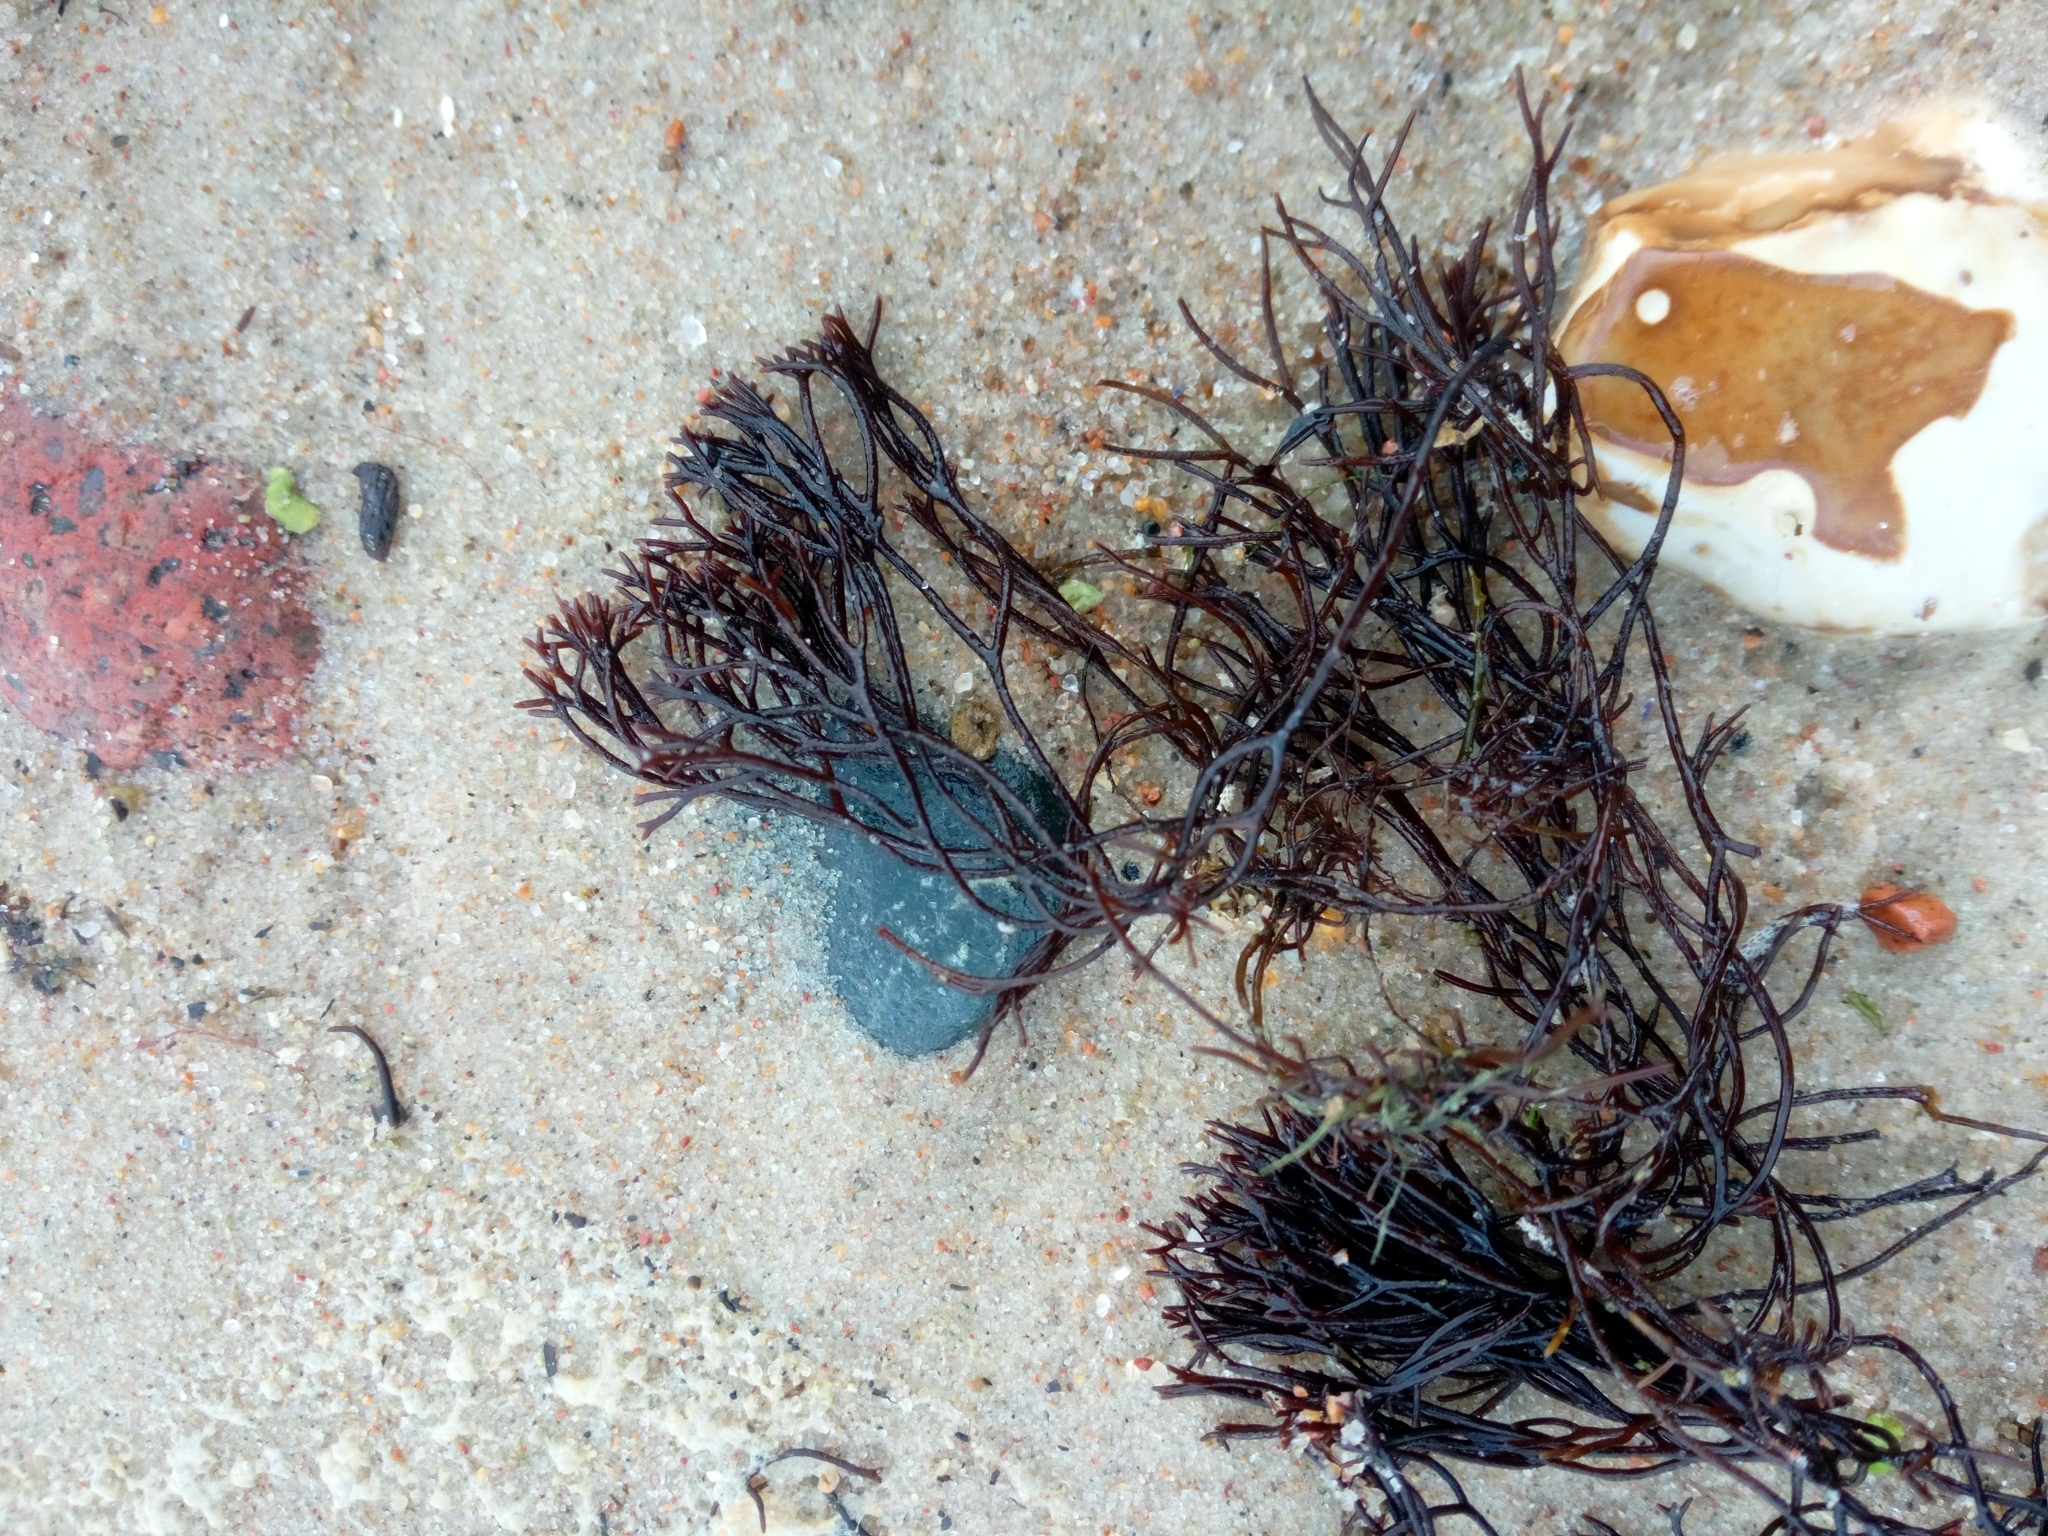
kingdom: Plantae
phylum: Rhodophyta
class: Florideophyceae
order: Gigartinales
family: Furcellariaceae
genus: Furcellaria
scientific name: Furcellaria lumbricalis
